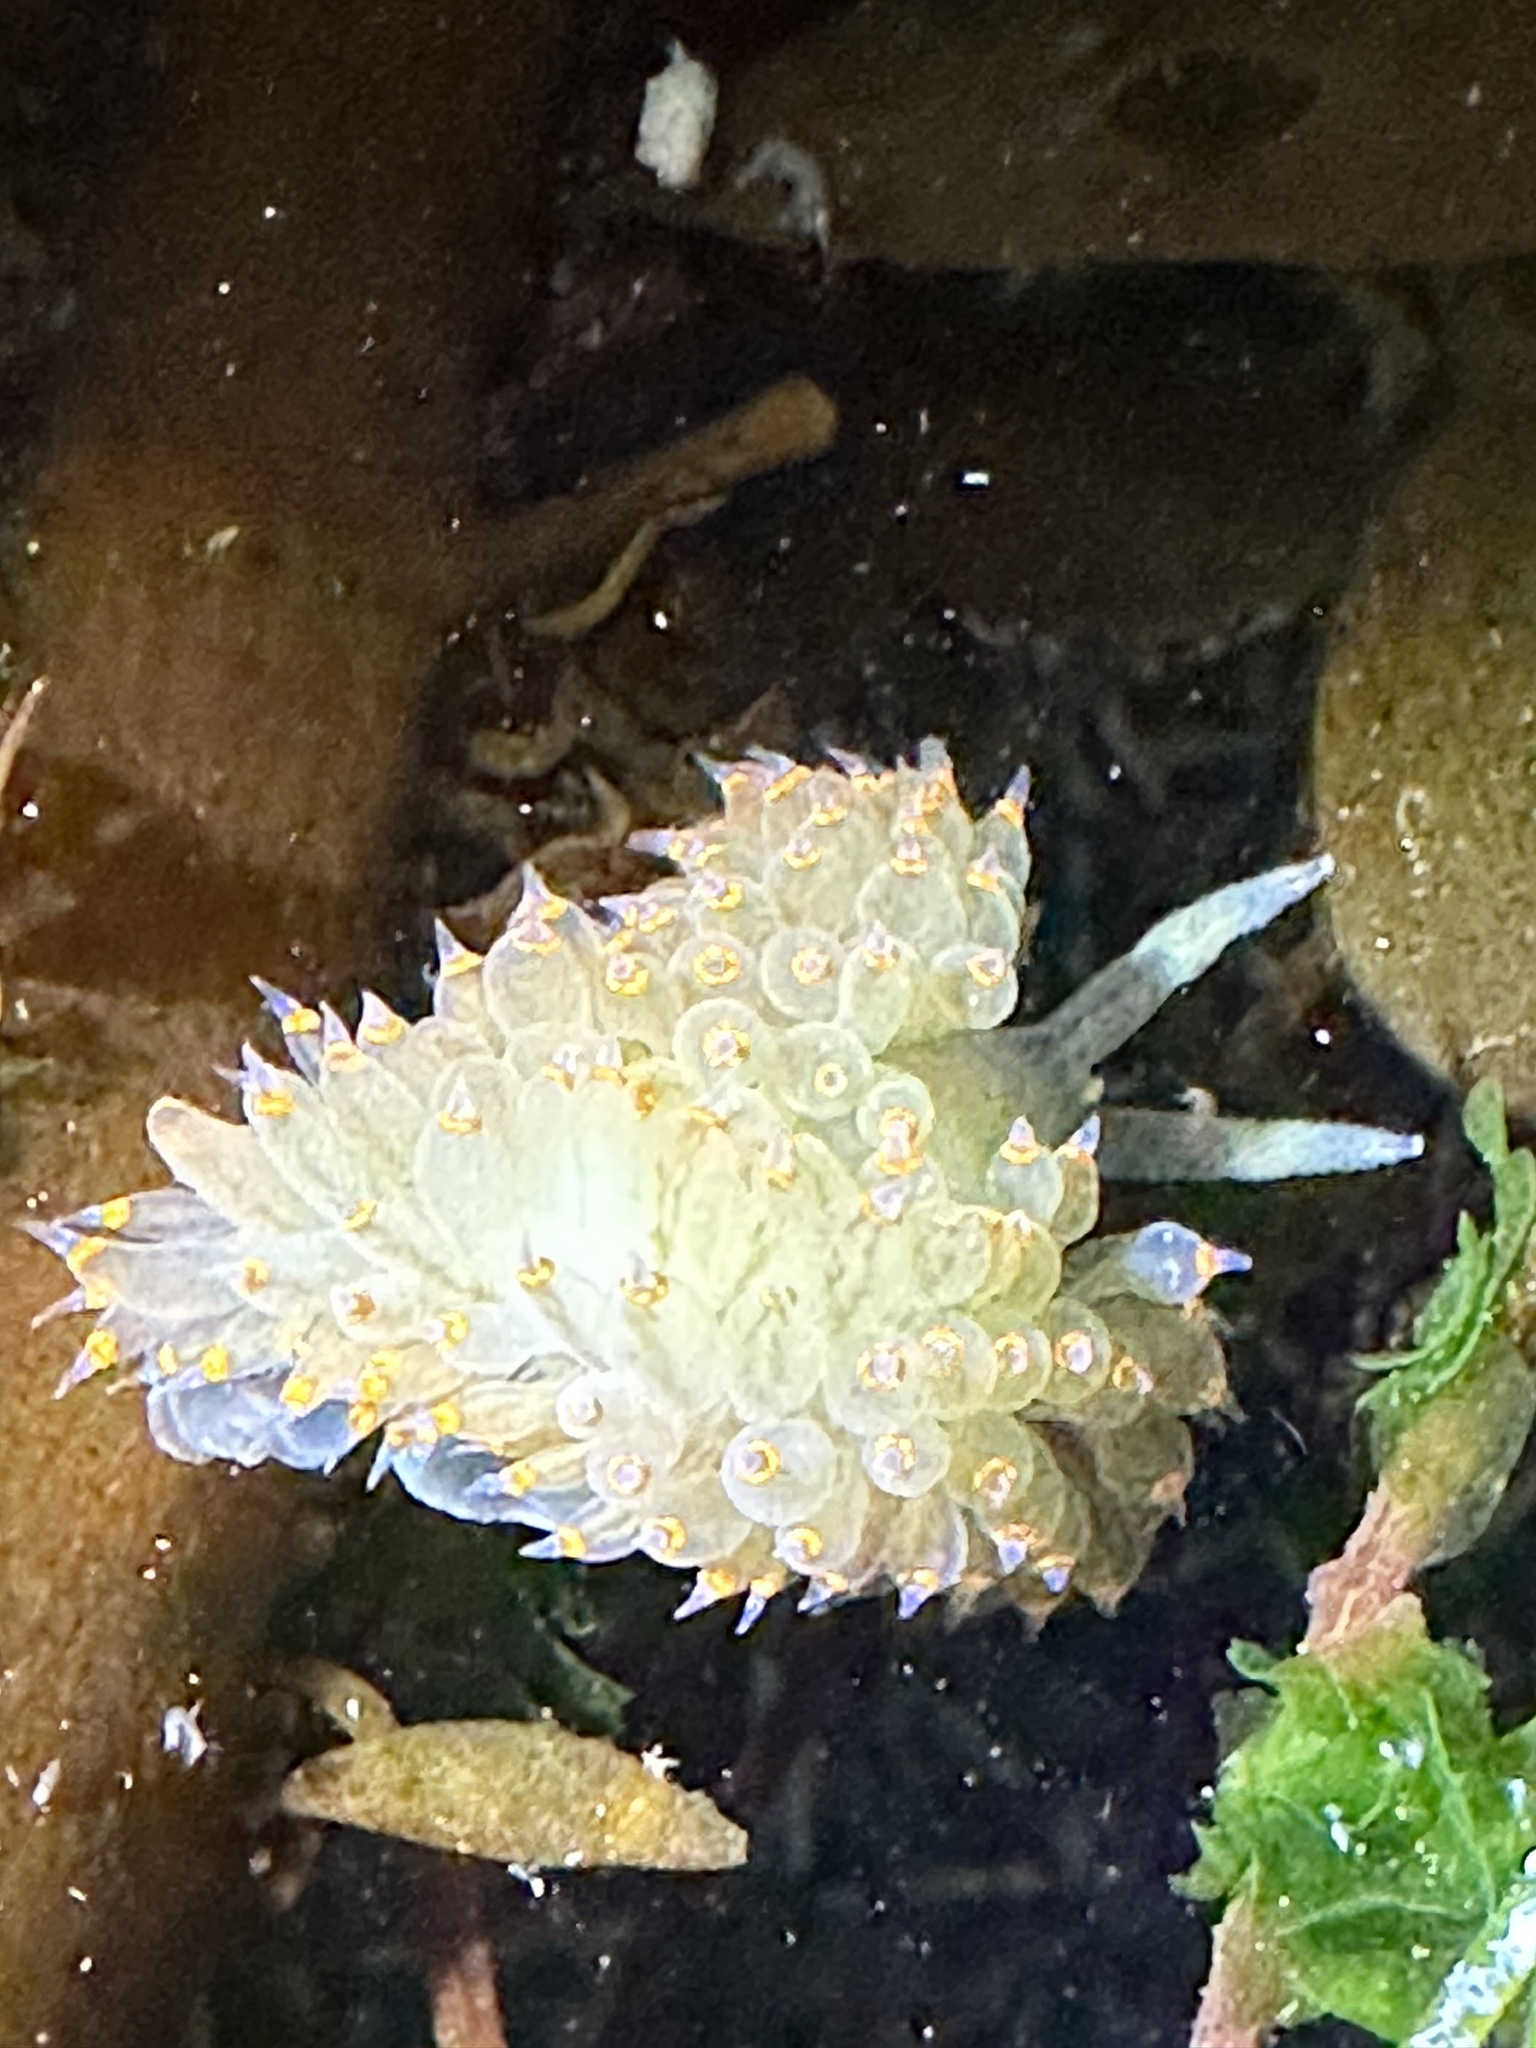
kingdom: Animalia
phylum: Mollusca
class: Gastropoda
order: Nudibranchia
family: Janolidae
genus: Antiopella
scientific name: Antiopella barbarensis
